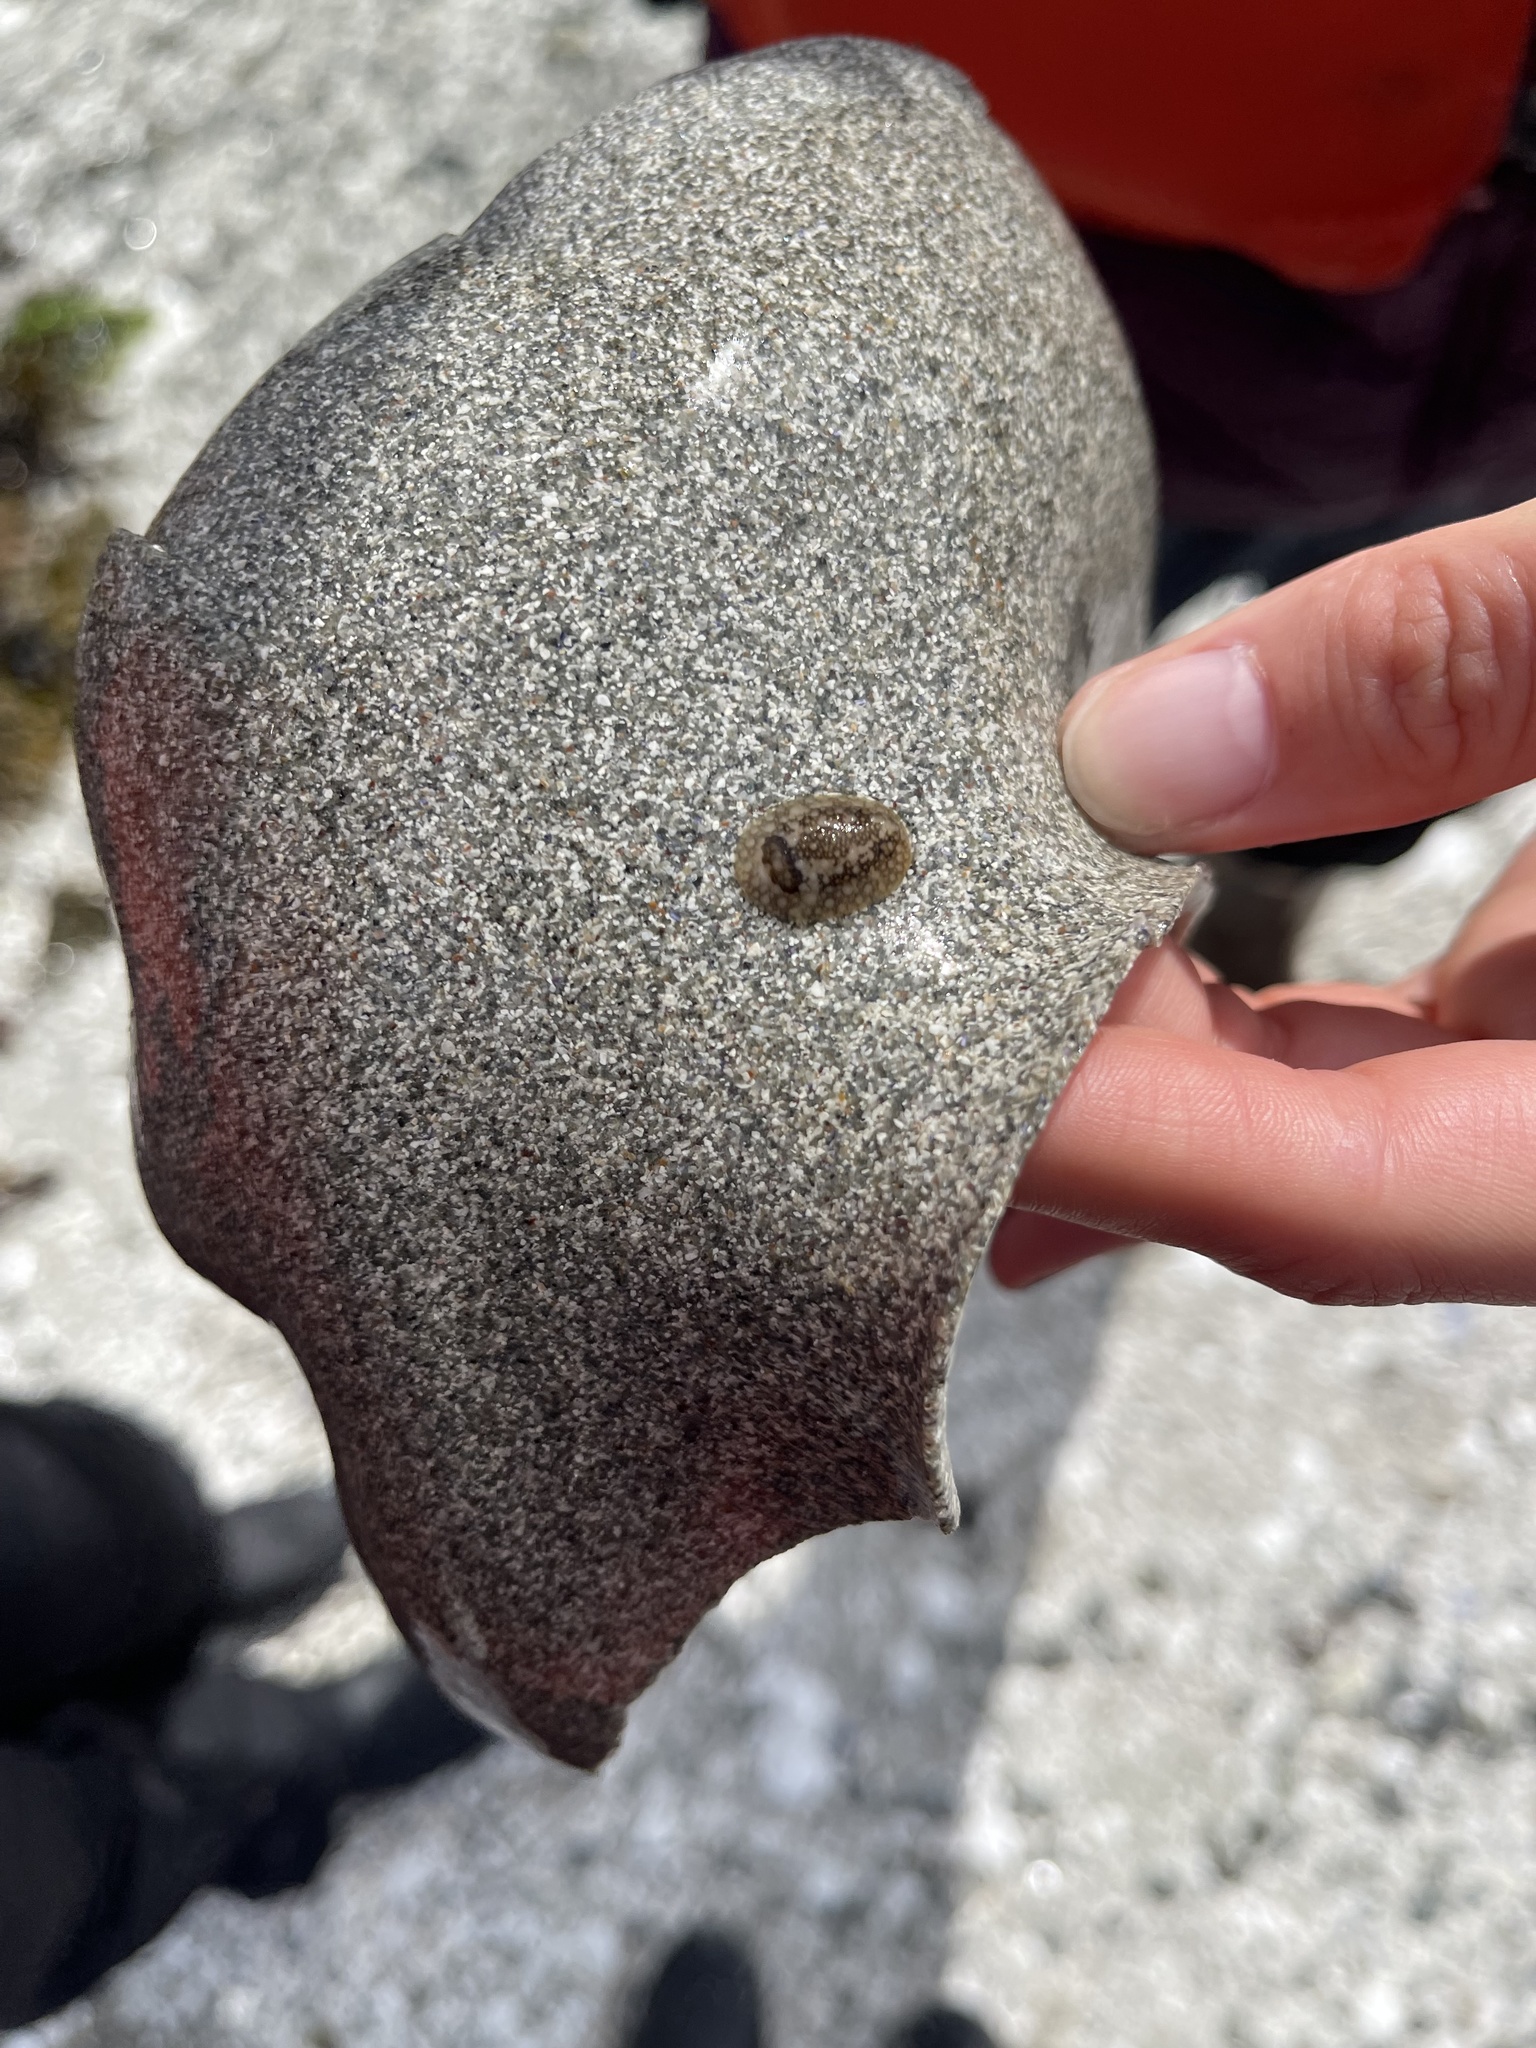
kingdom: Animalia
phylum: Mollusca
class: Gastropoda
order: Nudibranchia
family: Onchidorididae
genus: Onchidoris
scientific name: Onchidoris bilamellata
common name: Barnacle-eating onchidoris
